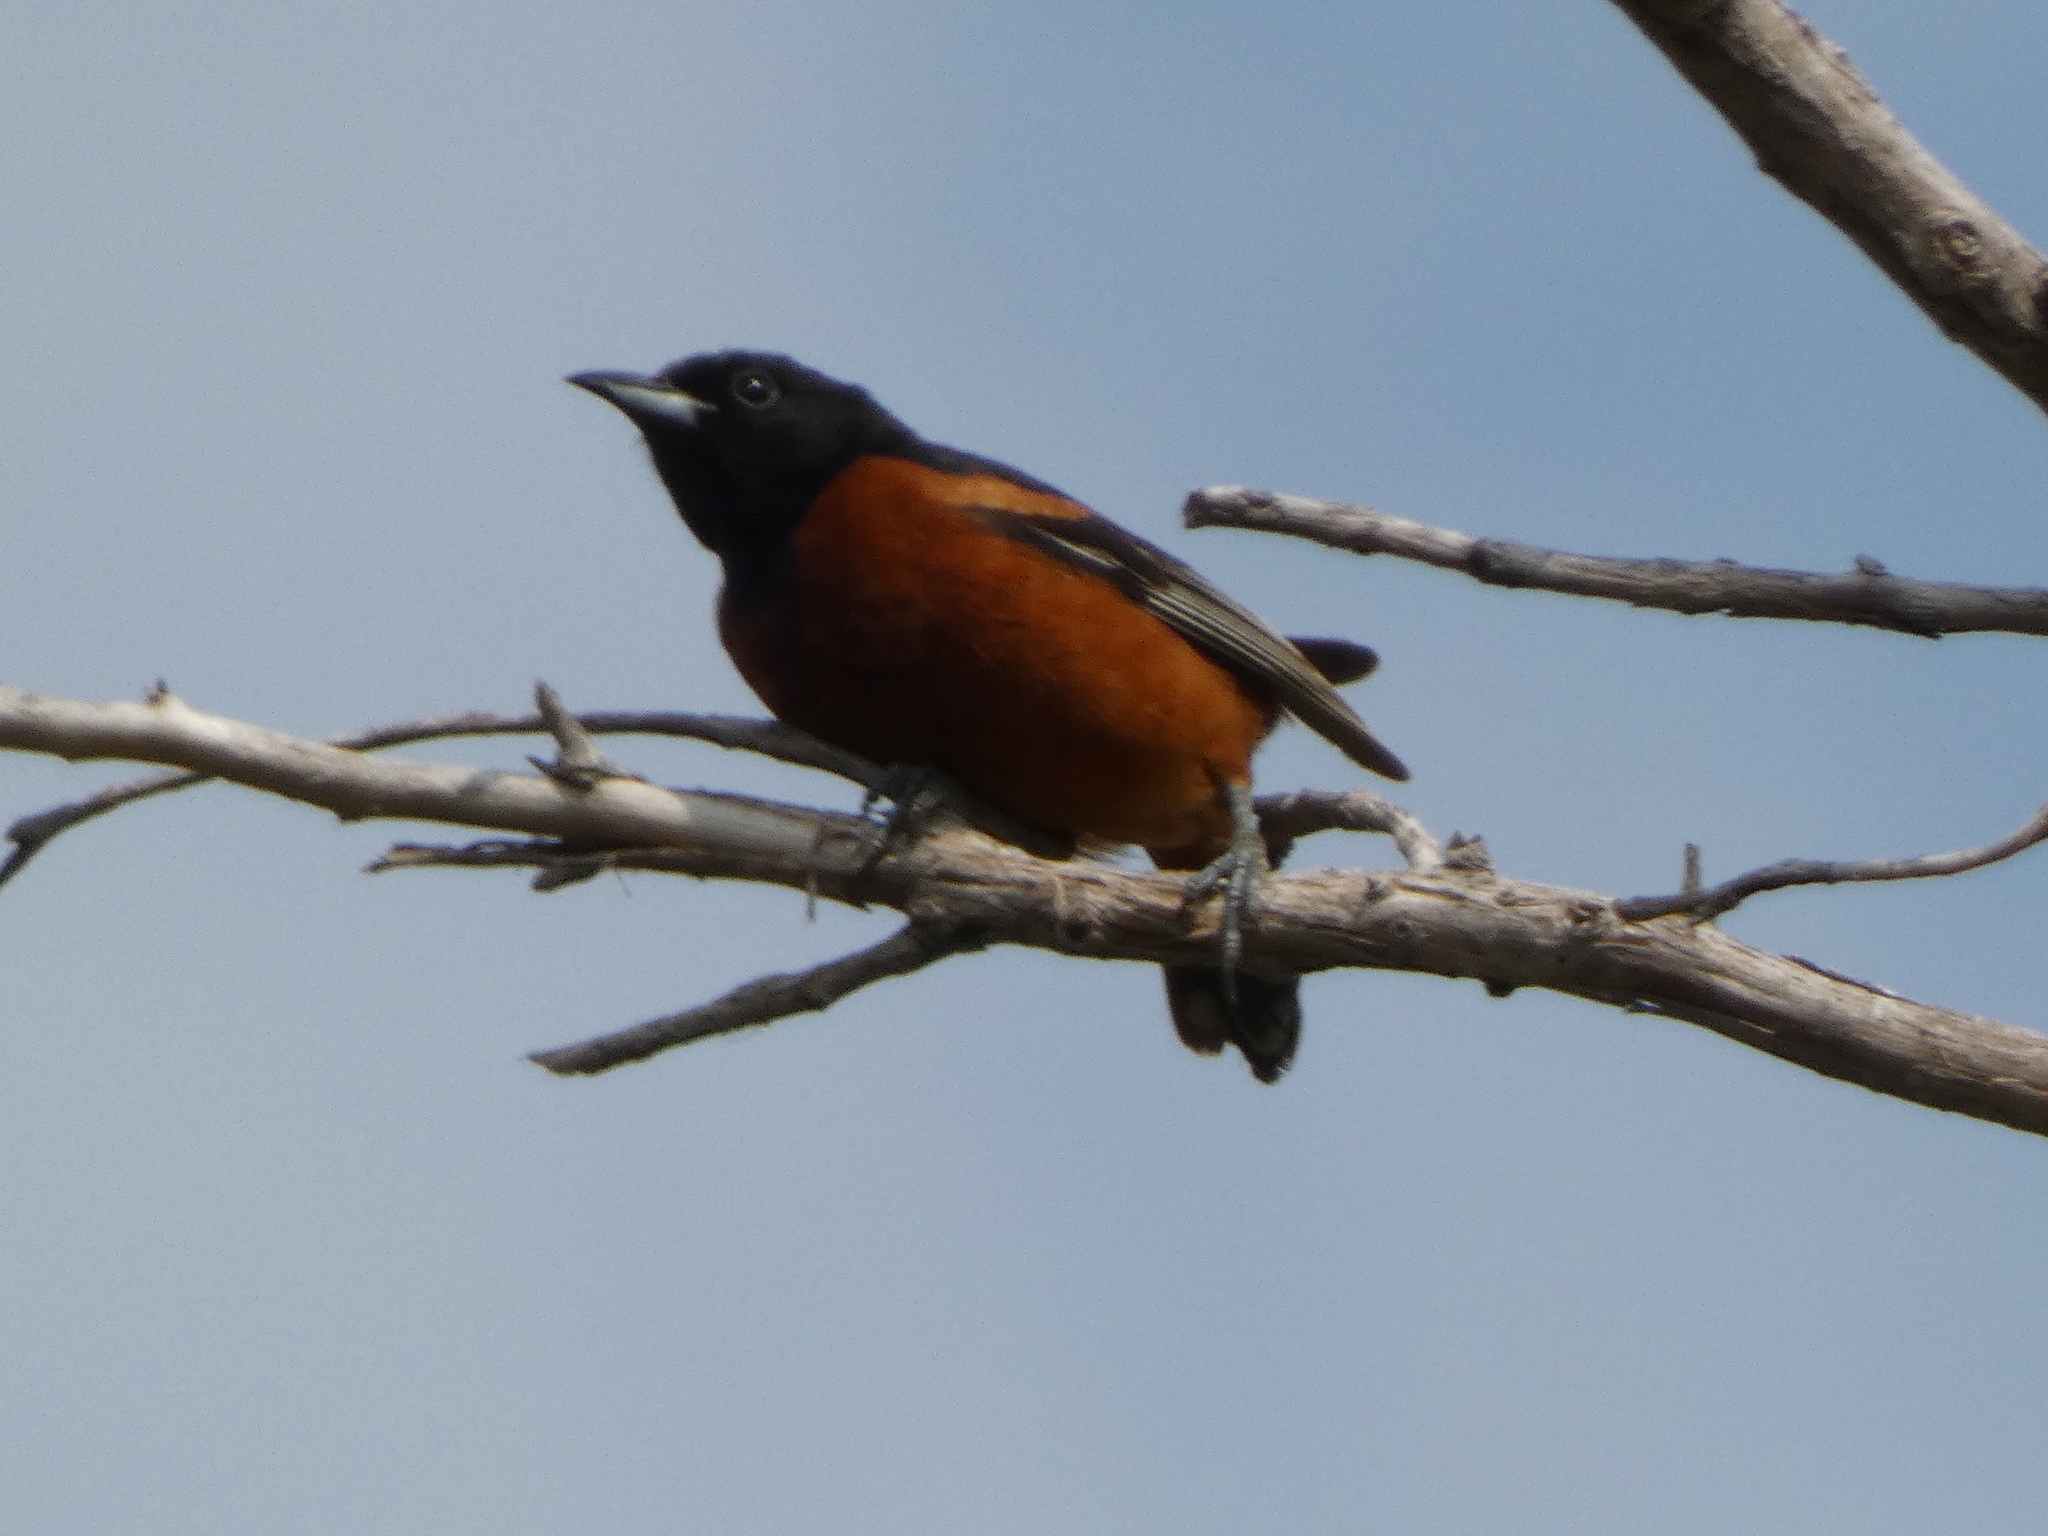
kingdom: Animalia
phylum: Chordata
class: Aves
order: Passeriformes
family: Icteridae
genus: Icterus
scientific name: Icterus spurius
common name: Orchard oriole
